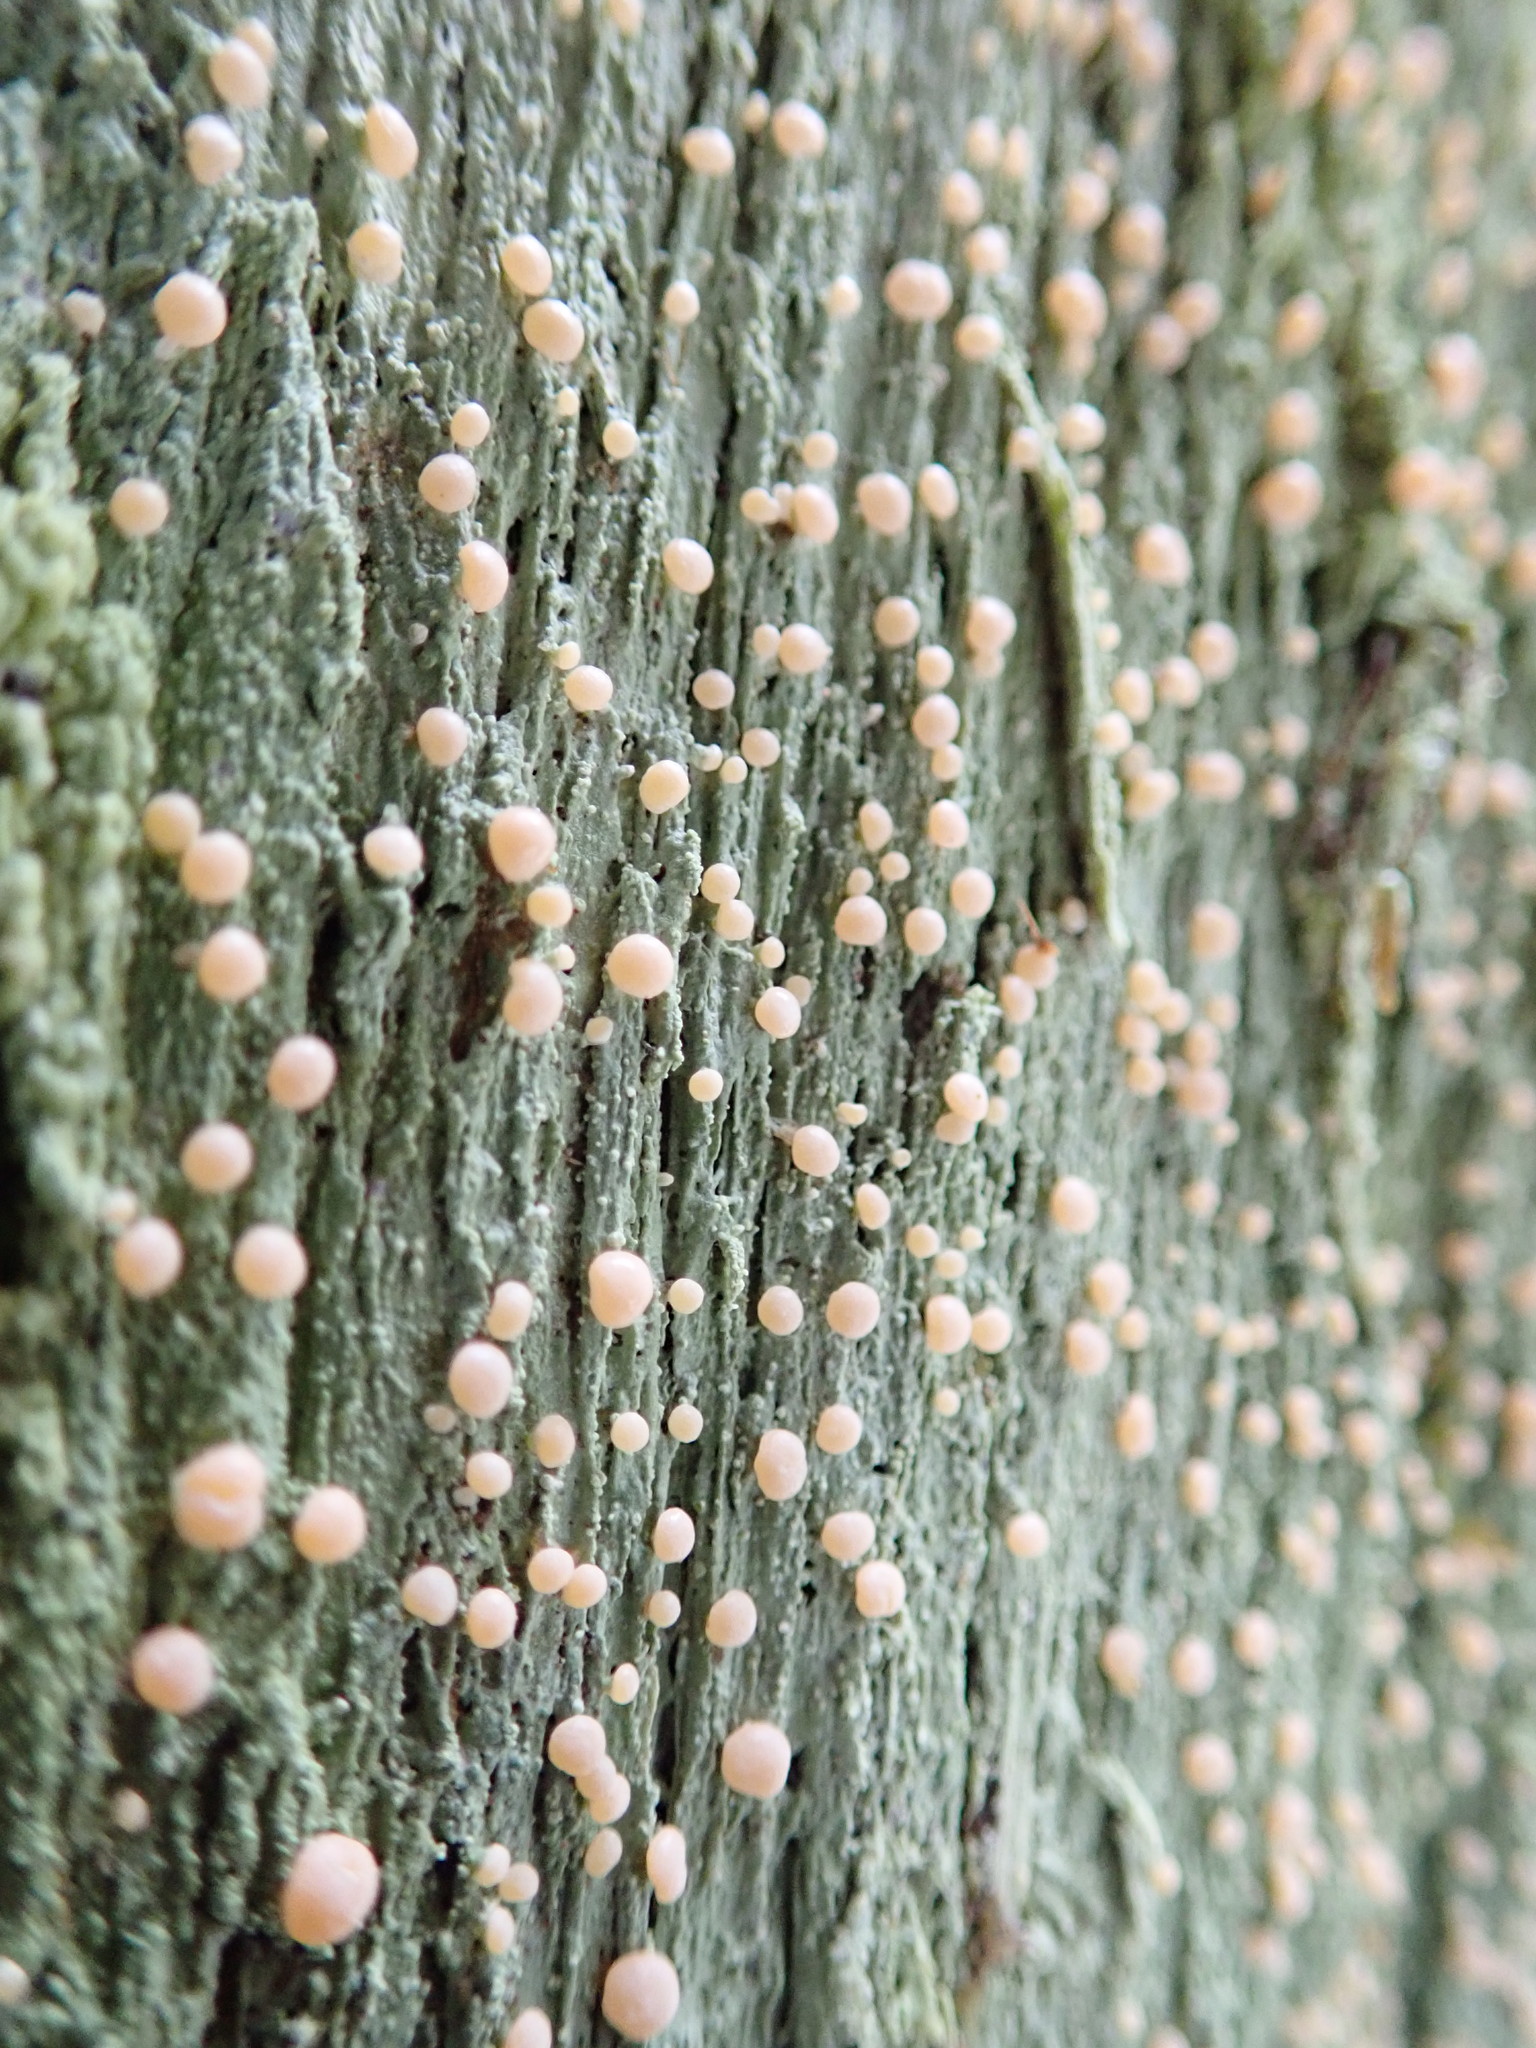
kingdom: Fungi
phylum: Ascomycota
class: Lecanoromycetes
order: Pertusariales
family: Icmadophilaceae
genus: Icmadophila
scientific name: Icmadophila ericetorum
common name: Candy lichen
